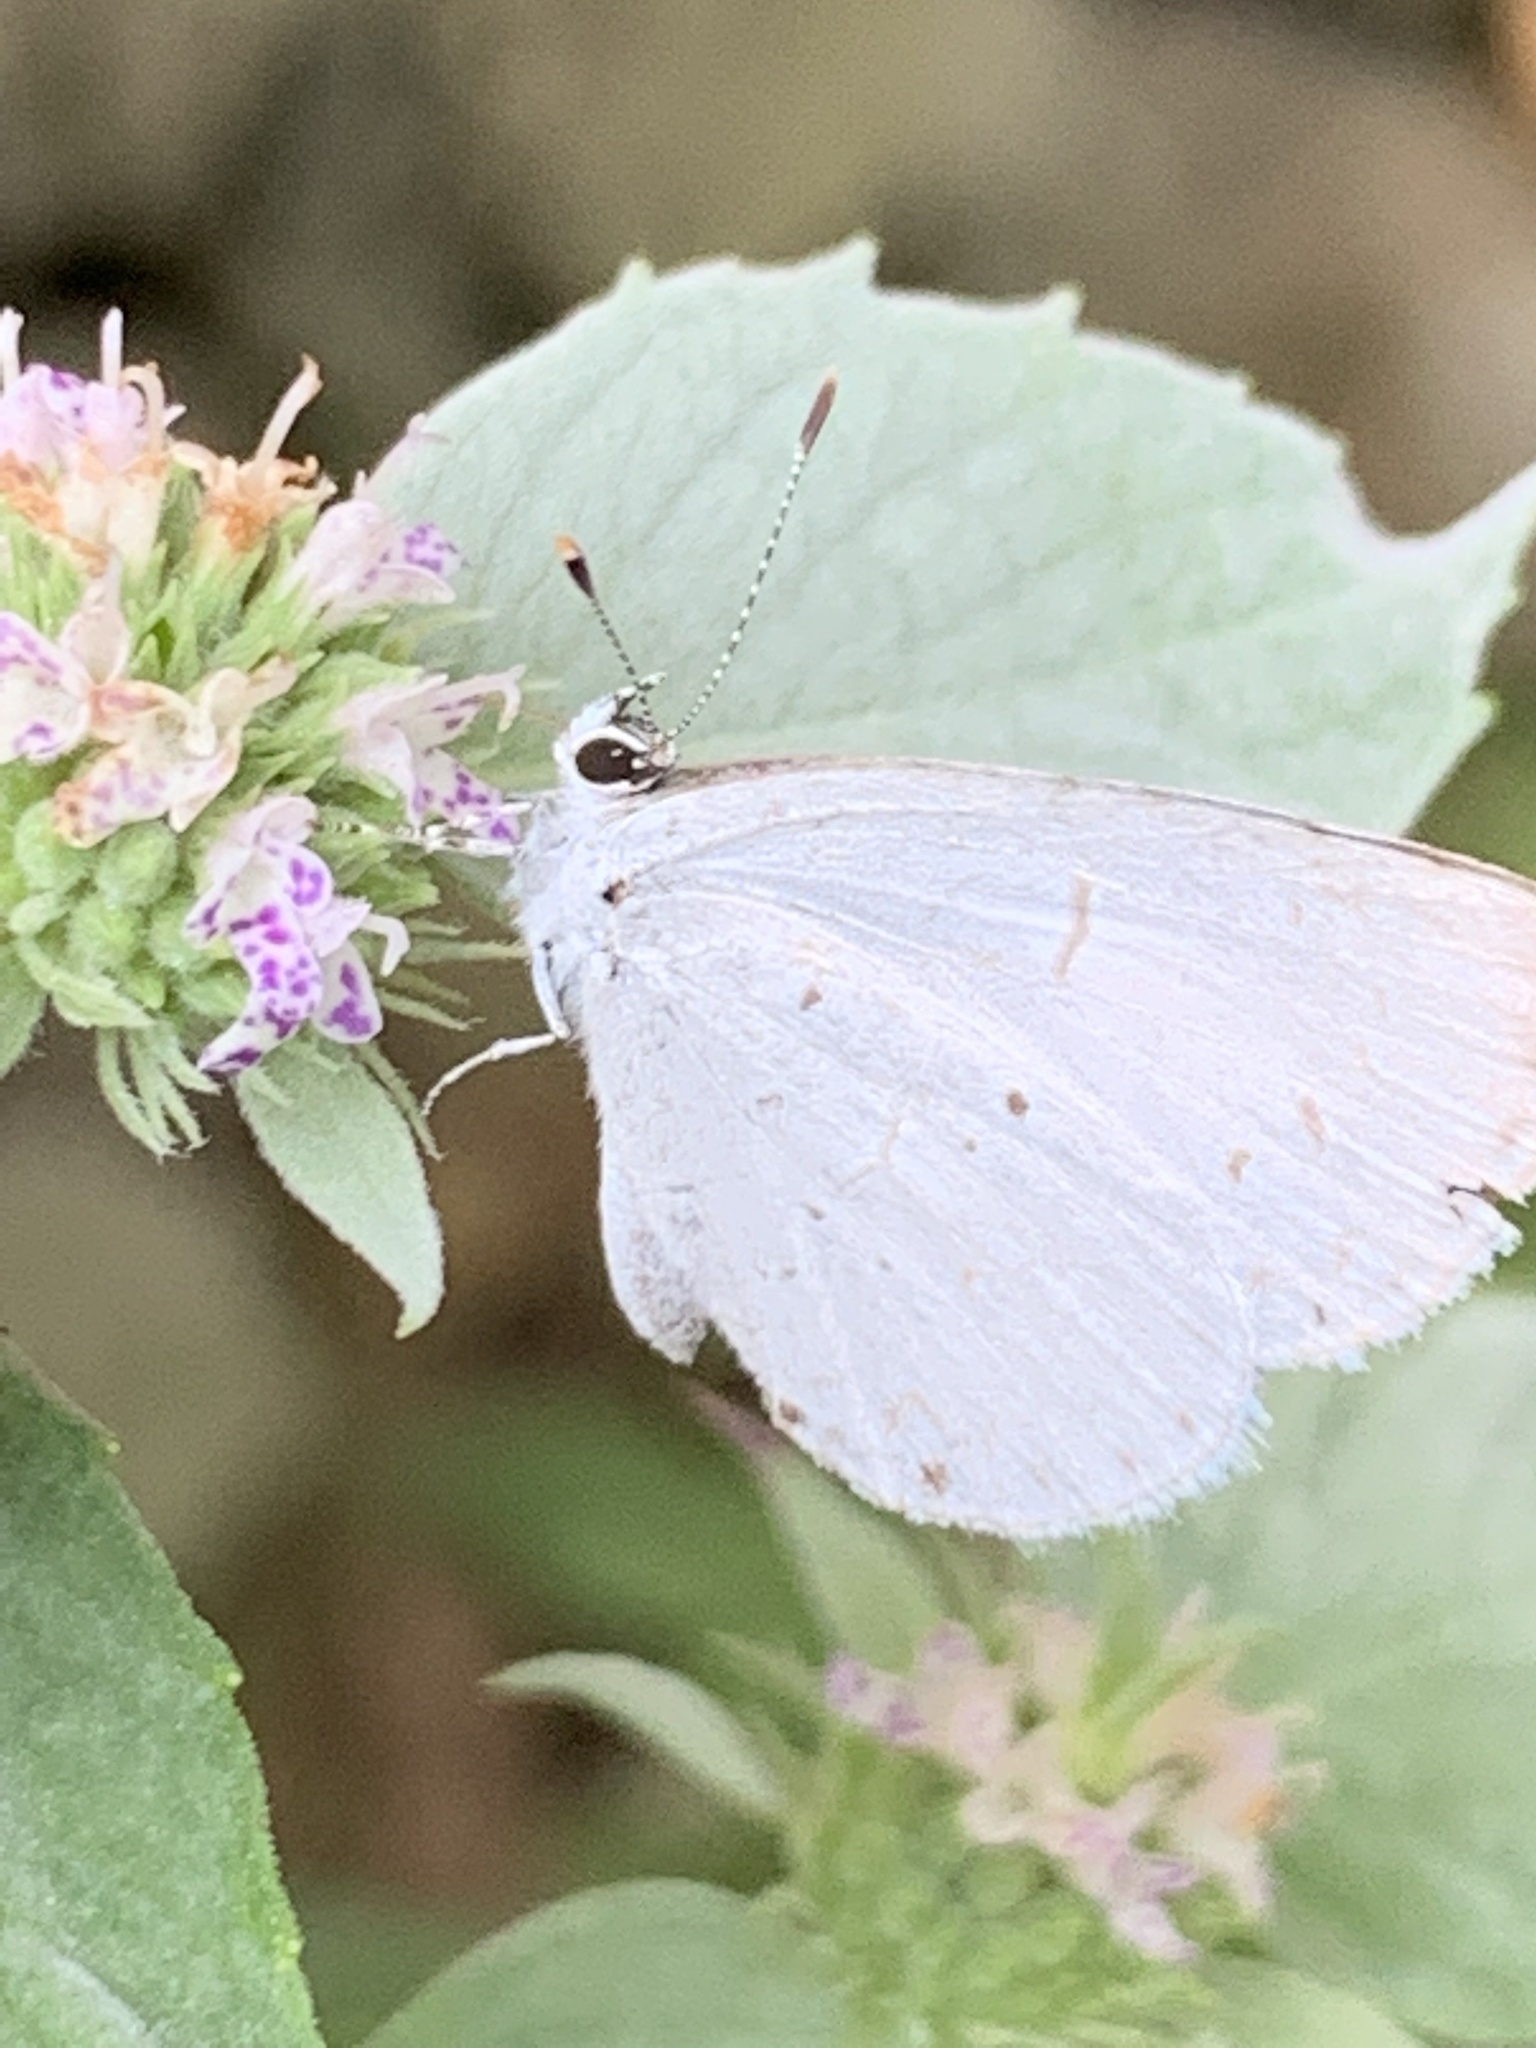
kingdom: Animalia
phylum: Arthropoda
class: Insecta
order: Lepidoptera
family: Lycaenidae
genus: Cyaniris
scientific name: Cyaniris neglecta
